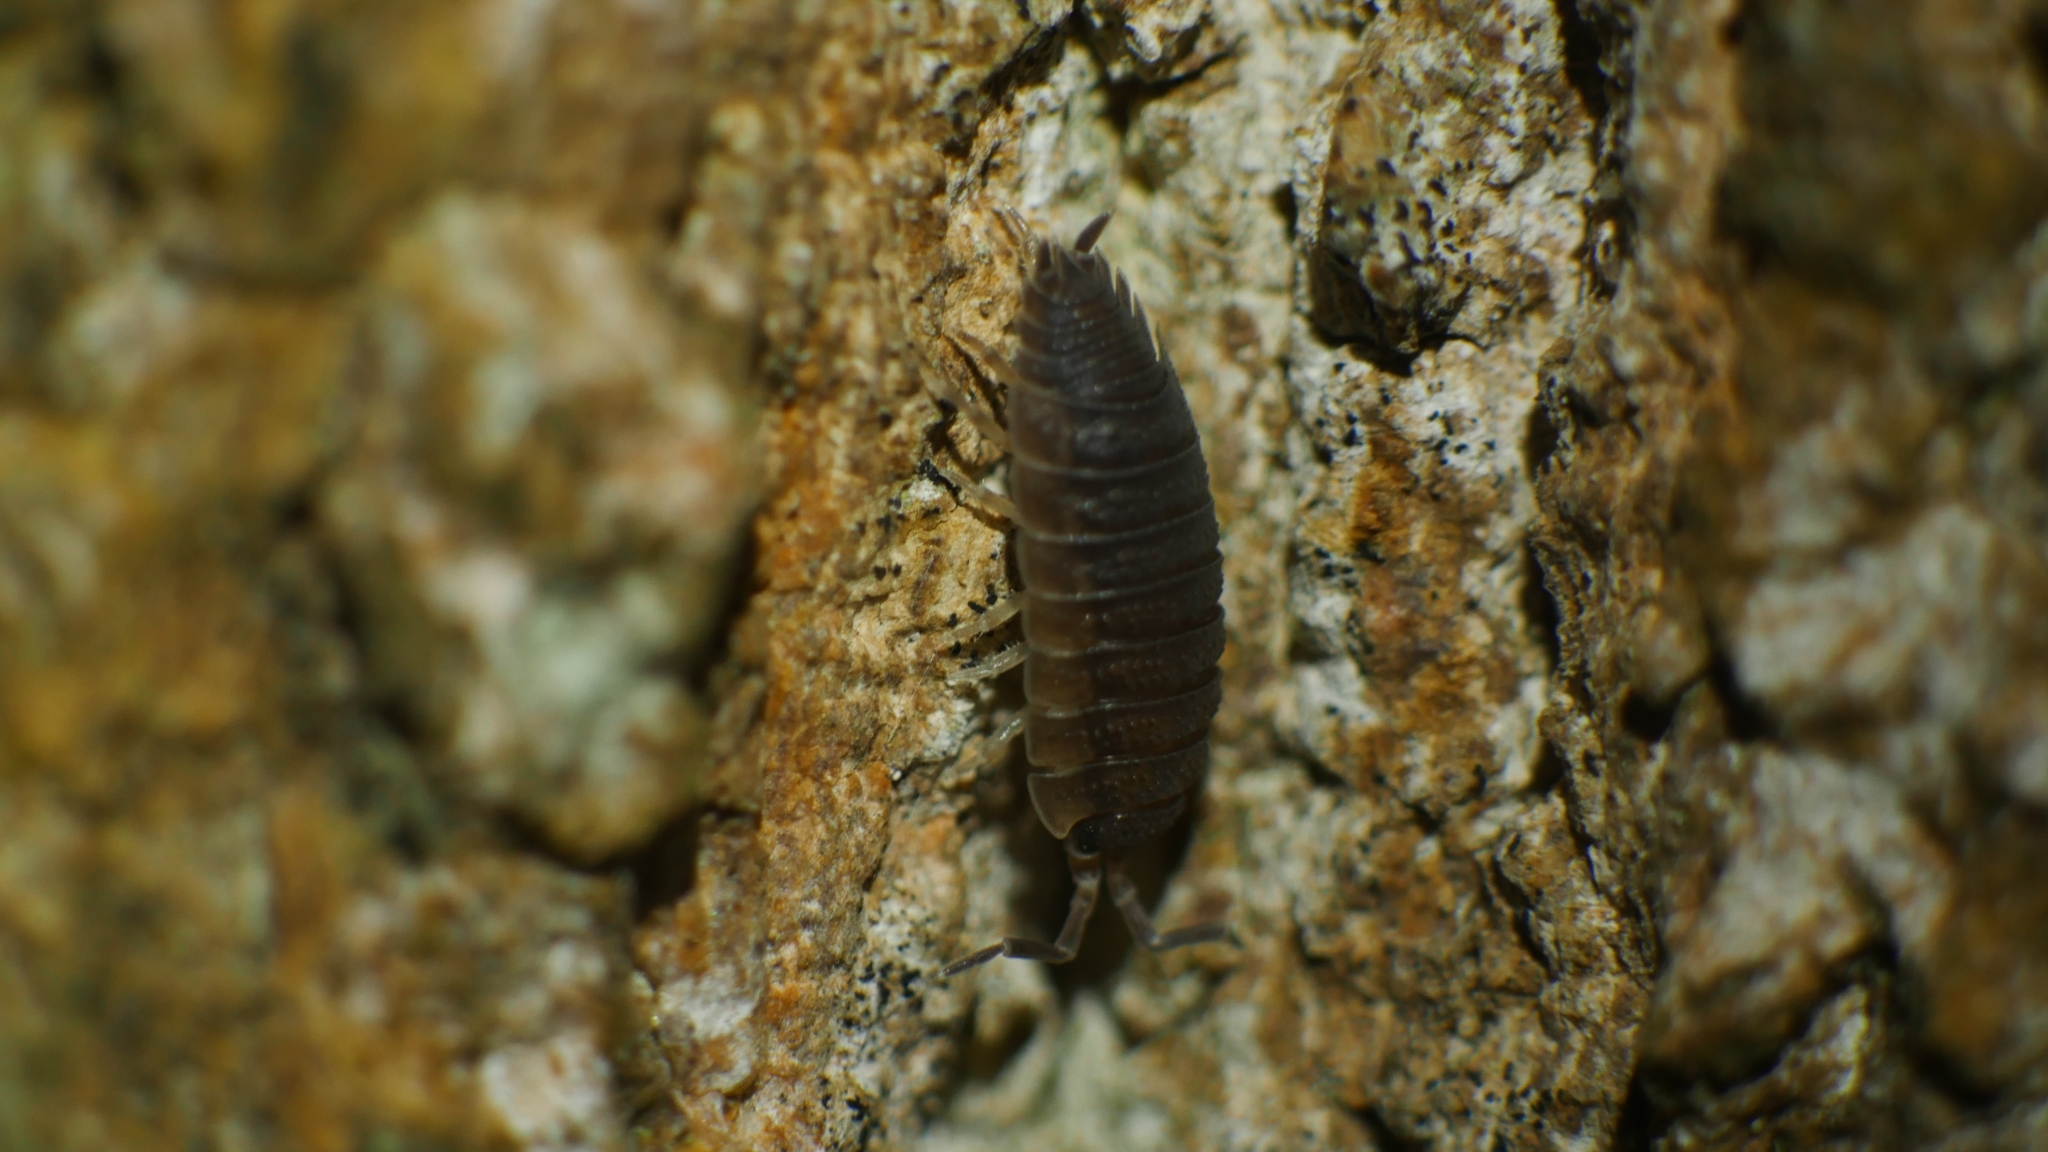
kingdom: Animalia
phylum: Arthropoda
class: Malacostraca
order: Isopoda
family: Porcellionidae
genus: Porcellio
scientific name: Porcellio scaber
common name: Common rough woodlouse
